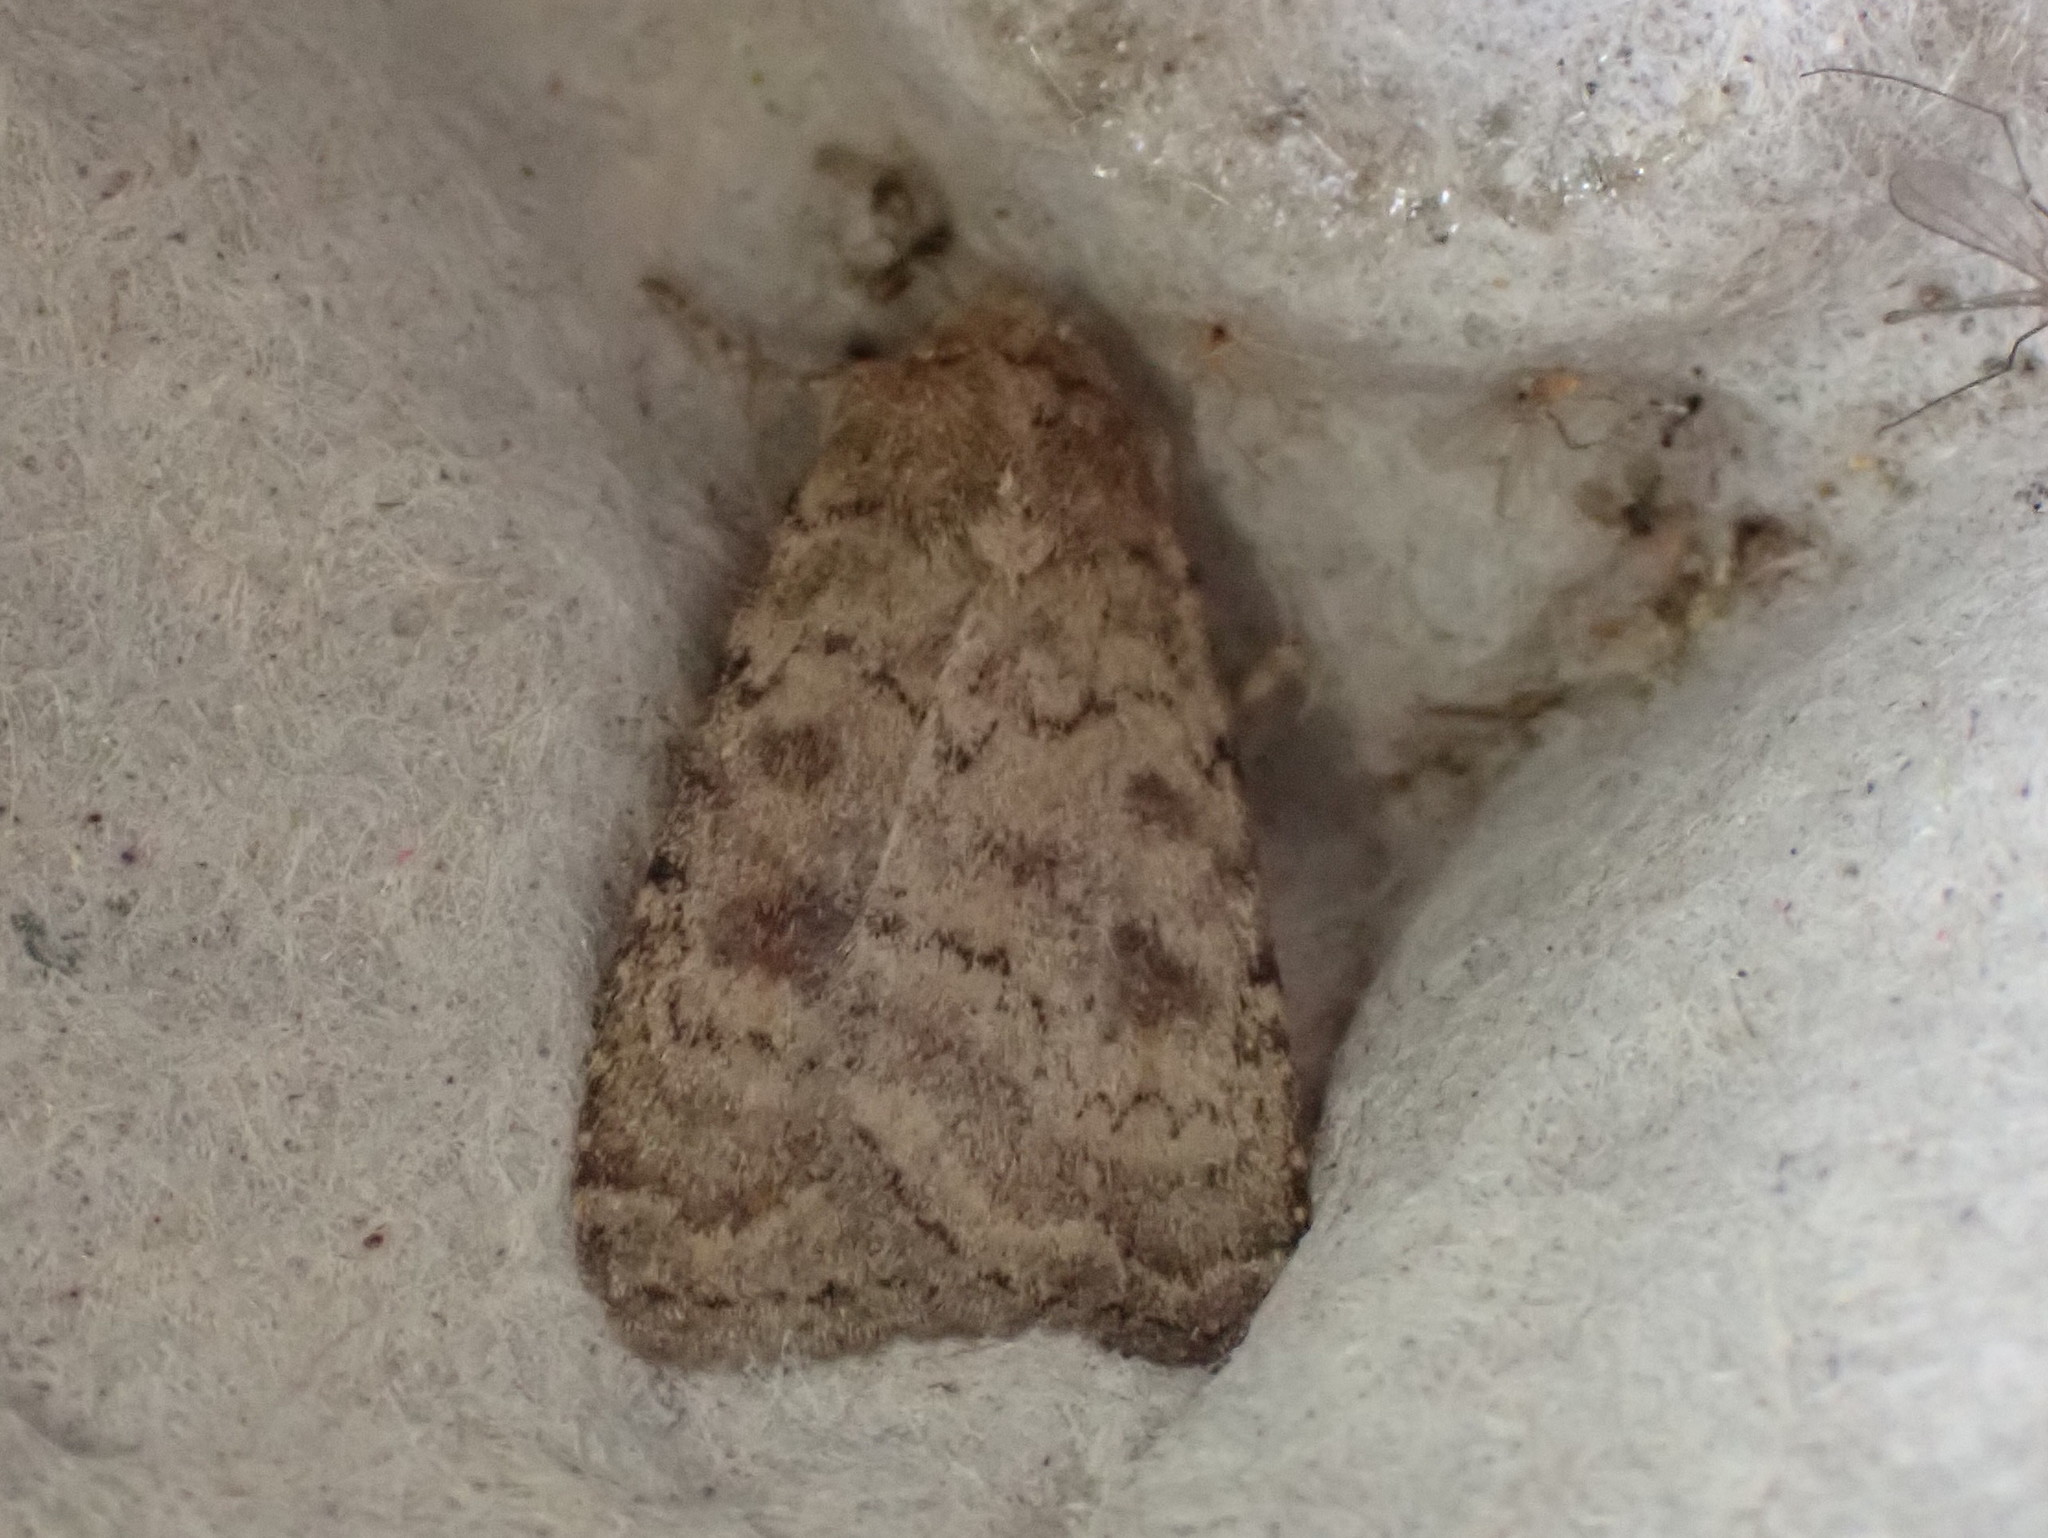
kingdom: Animalia
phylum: Arthropoda
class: Insecta
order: Lepidoptera
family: Noctuidae
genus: Caradrina
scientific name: Caradrina morpheus
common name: Mottled rustic
